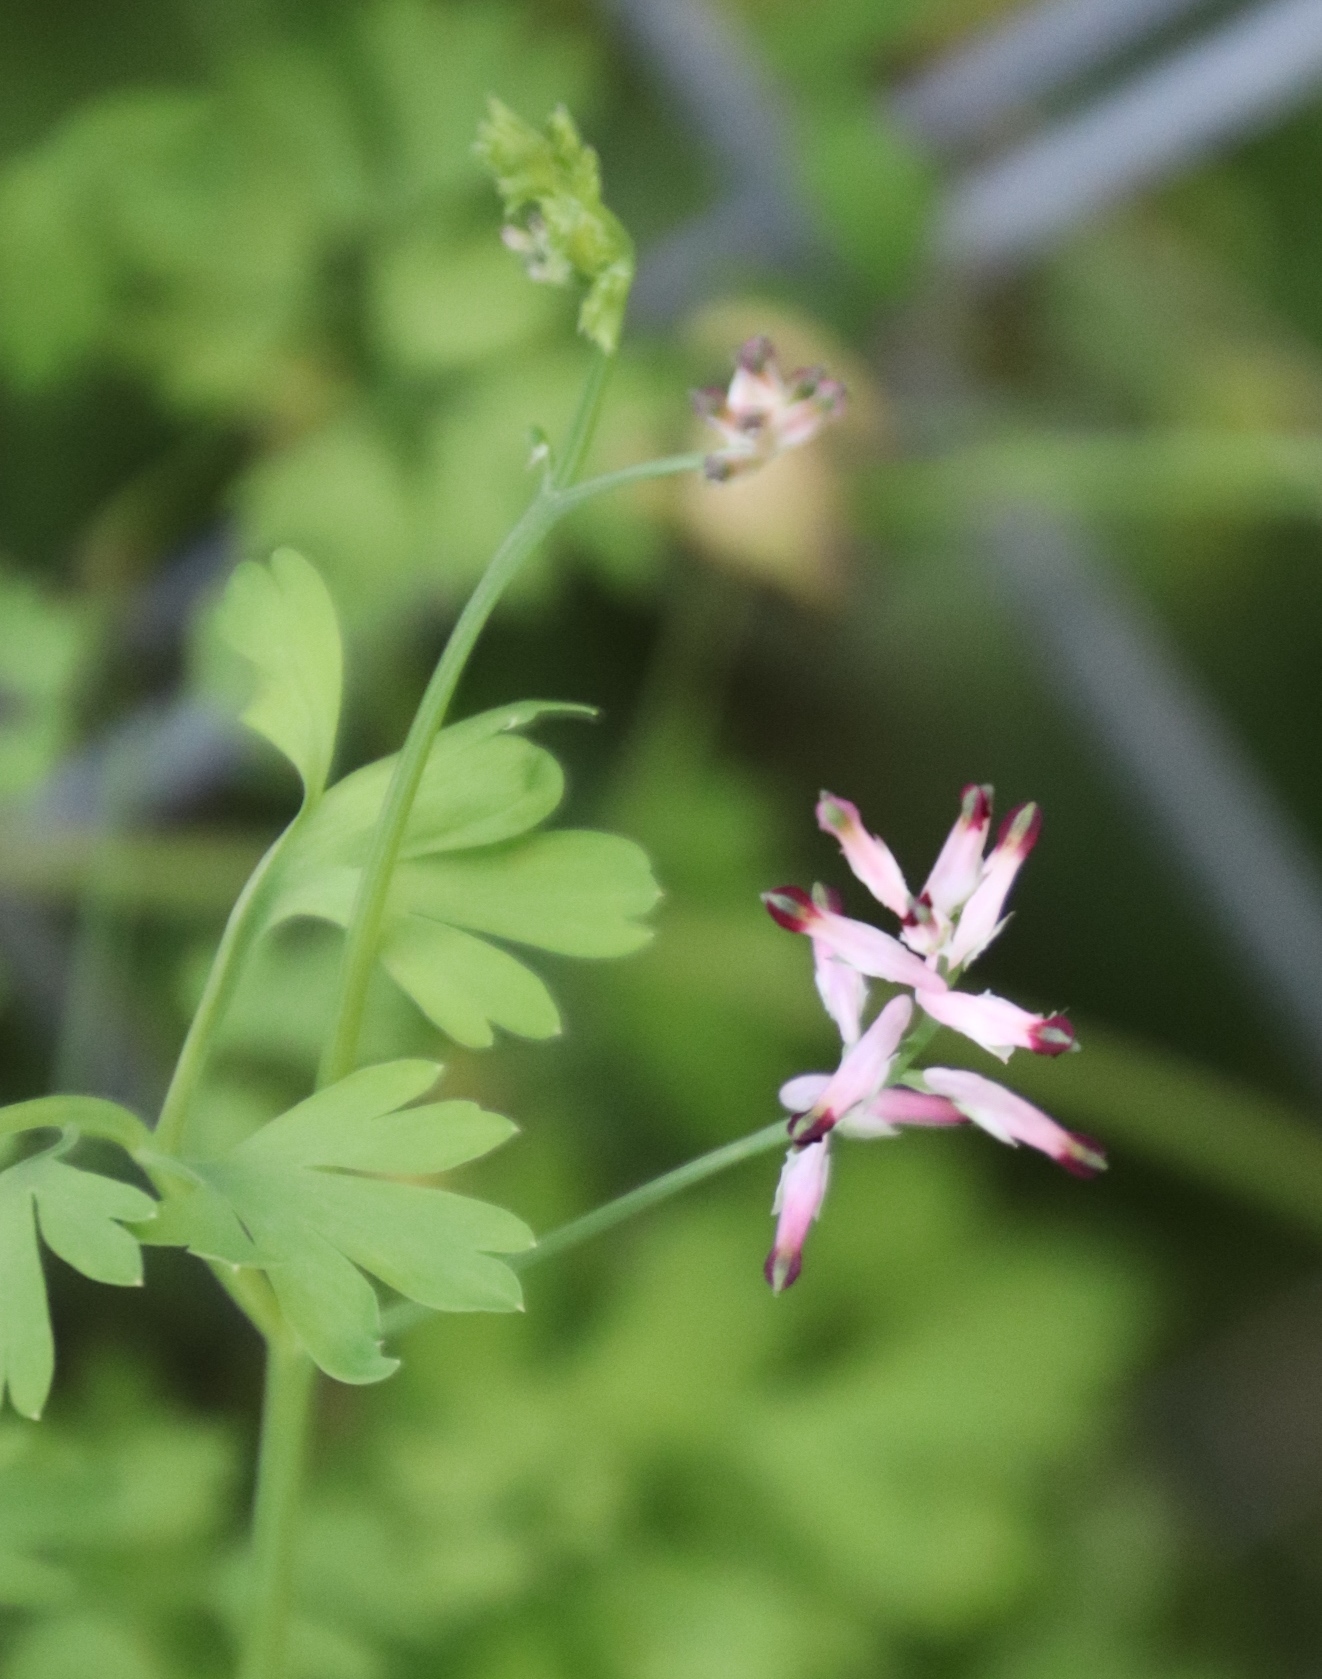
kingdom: Plantae
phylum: Tracheophyta
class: Magnoliopsida
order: Ranunculales
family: Papaveraceae
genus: Fumaria
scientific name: Fumaria muralis
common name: Common ramping-fumitory
